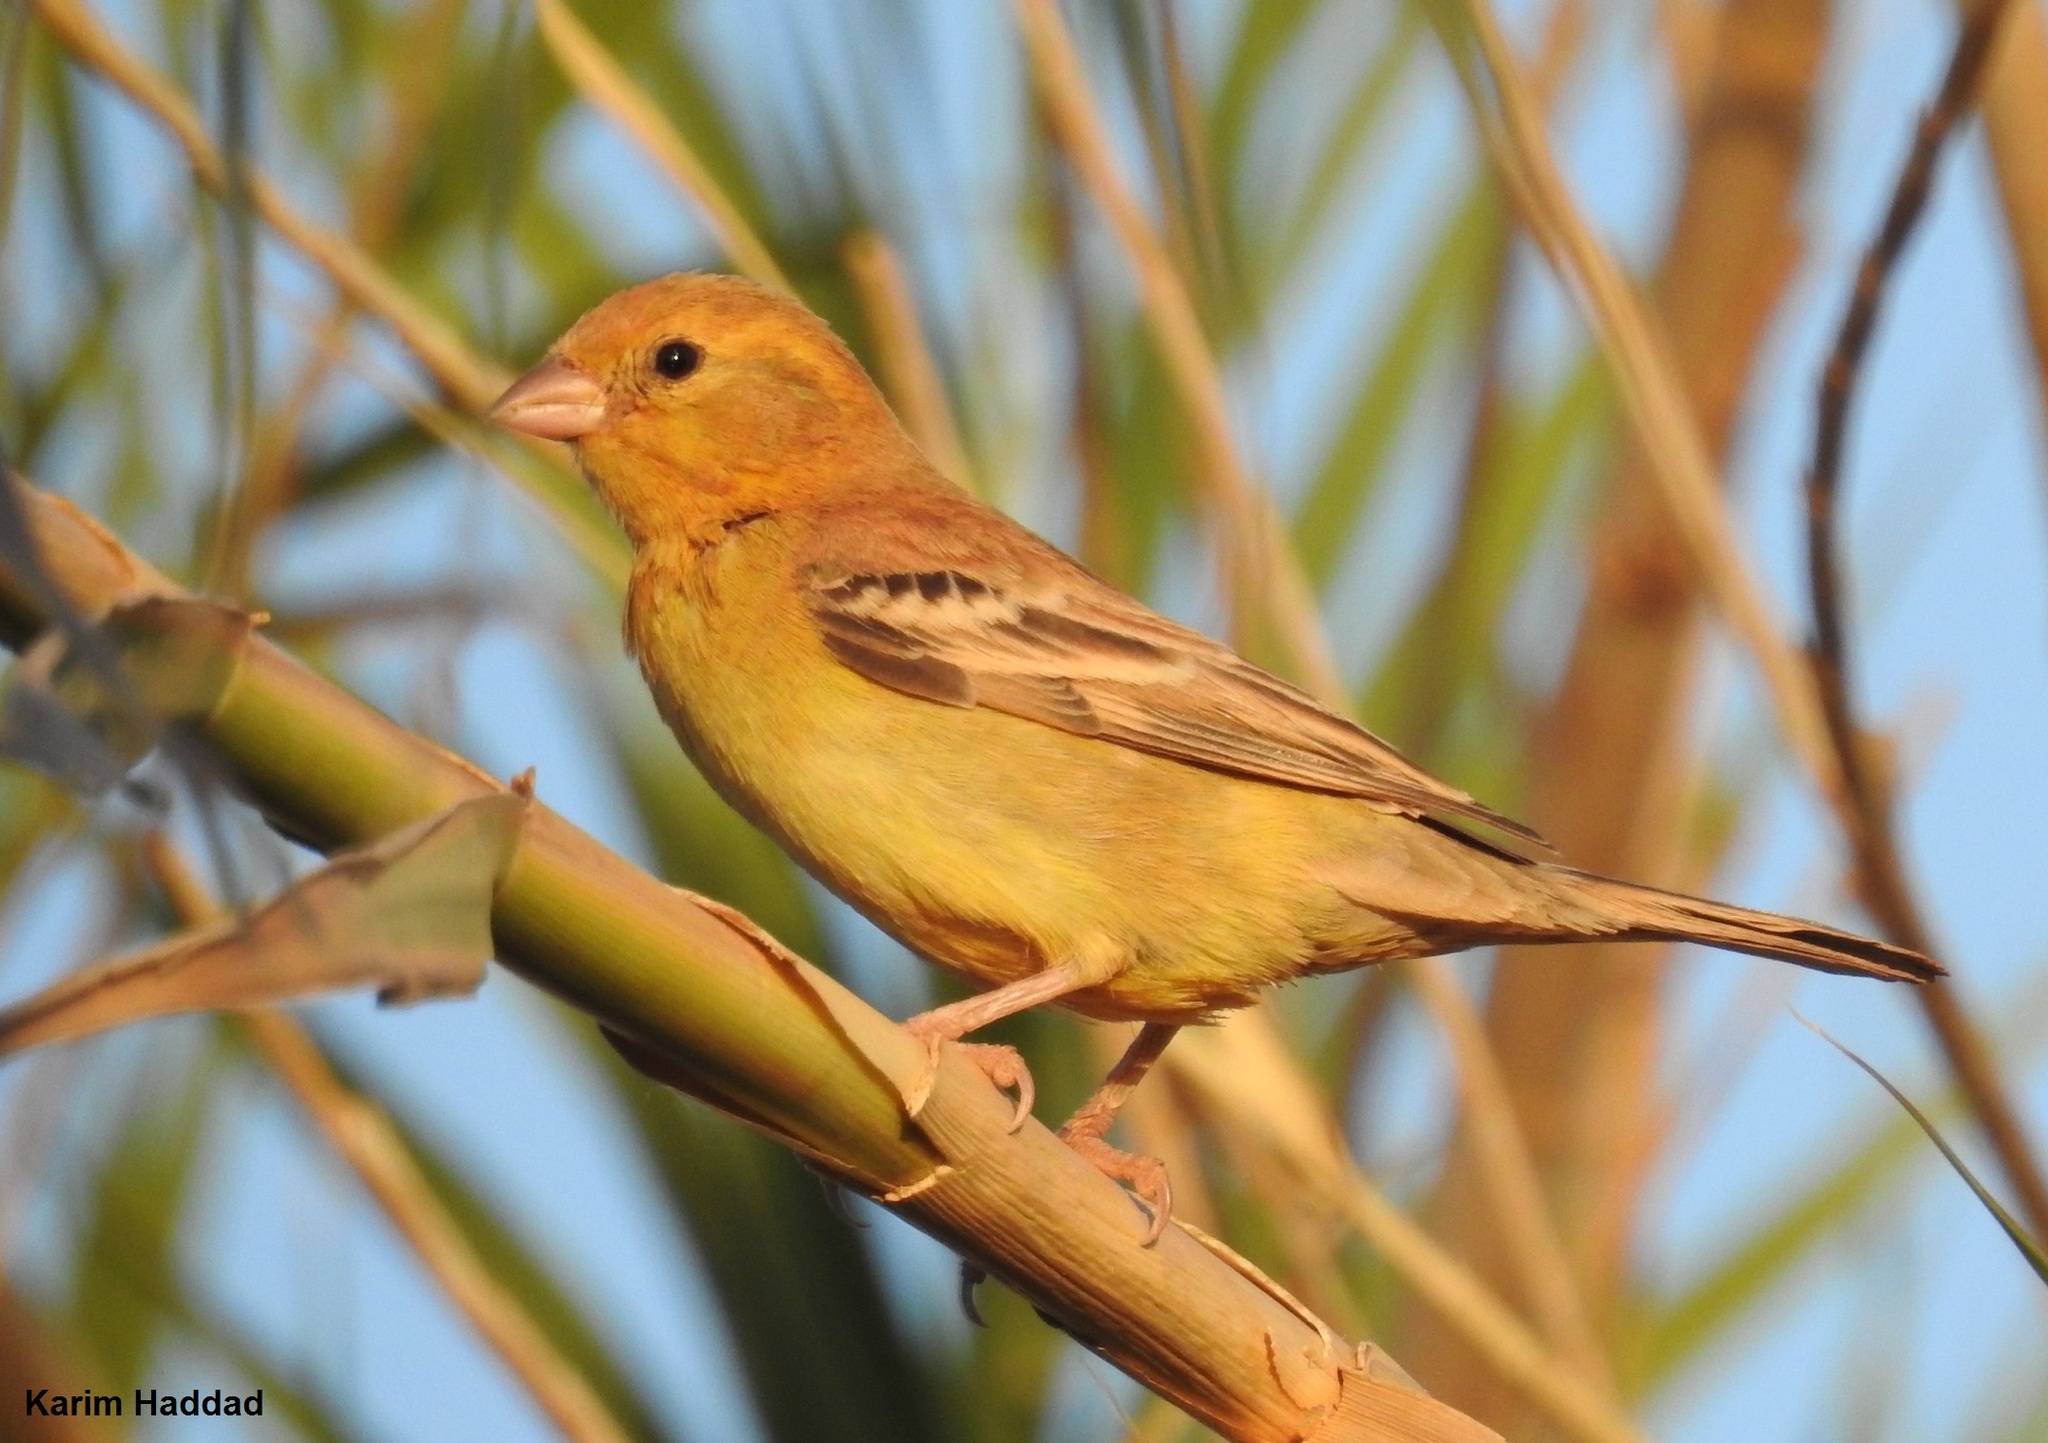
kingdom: Animalia
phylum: Chordata
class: Aves
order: Passeriformes
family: Passeridae
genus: Passer
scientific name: Passer luteus
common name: Sudan golden sparrow
